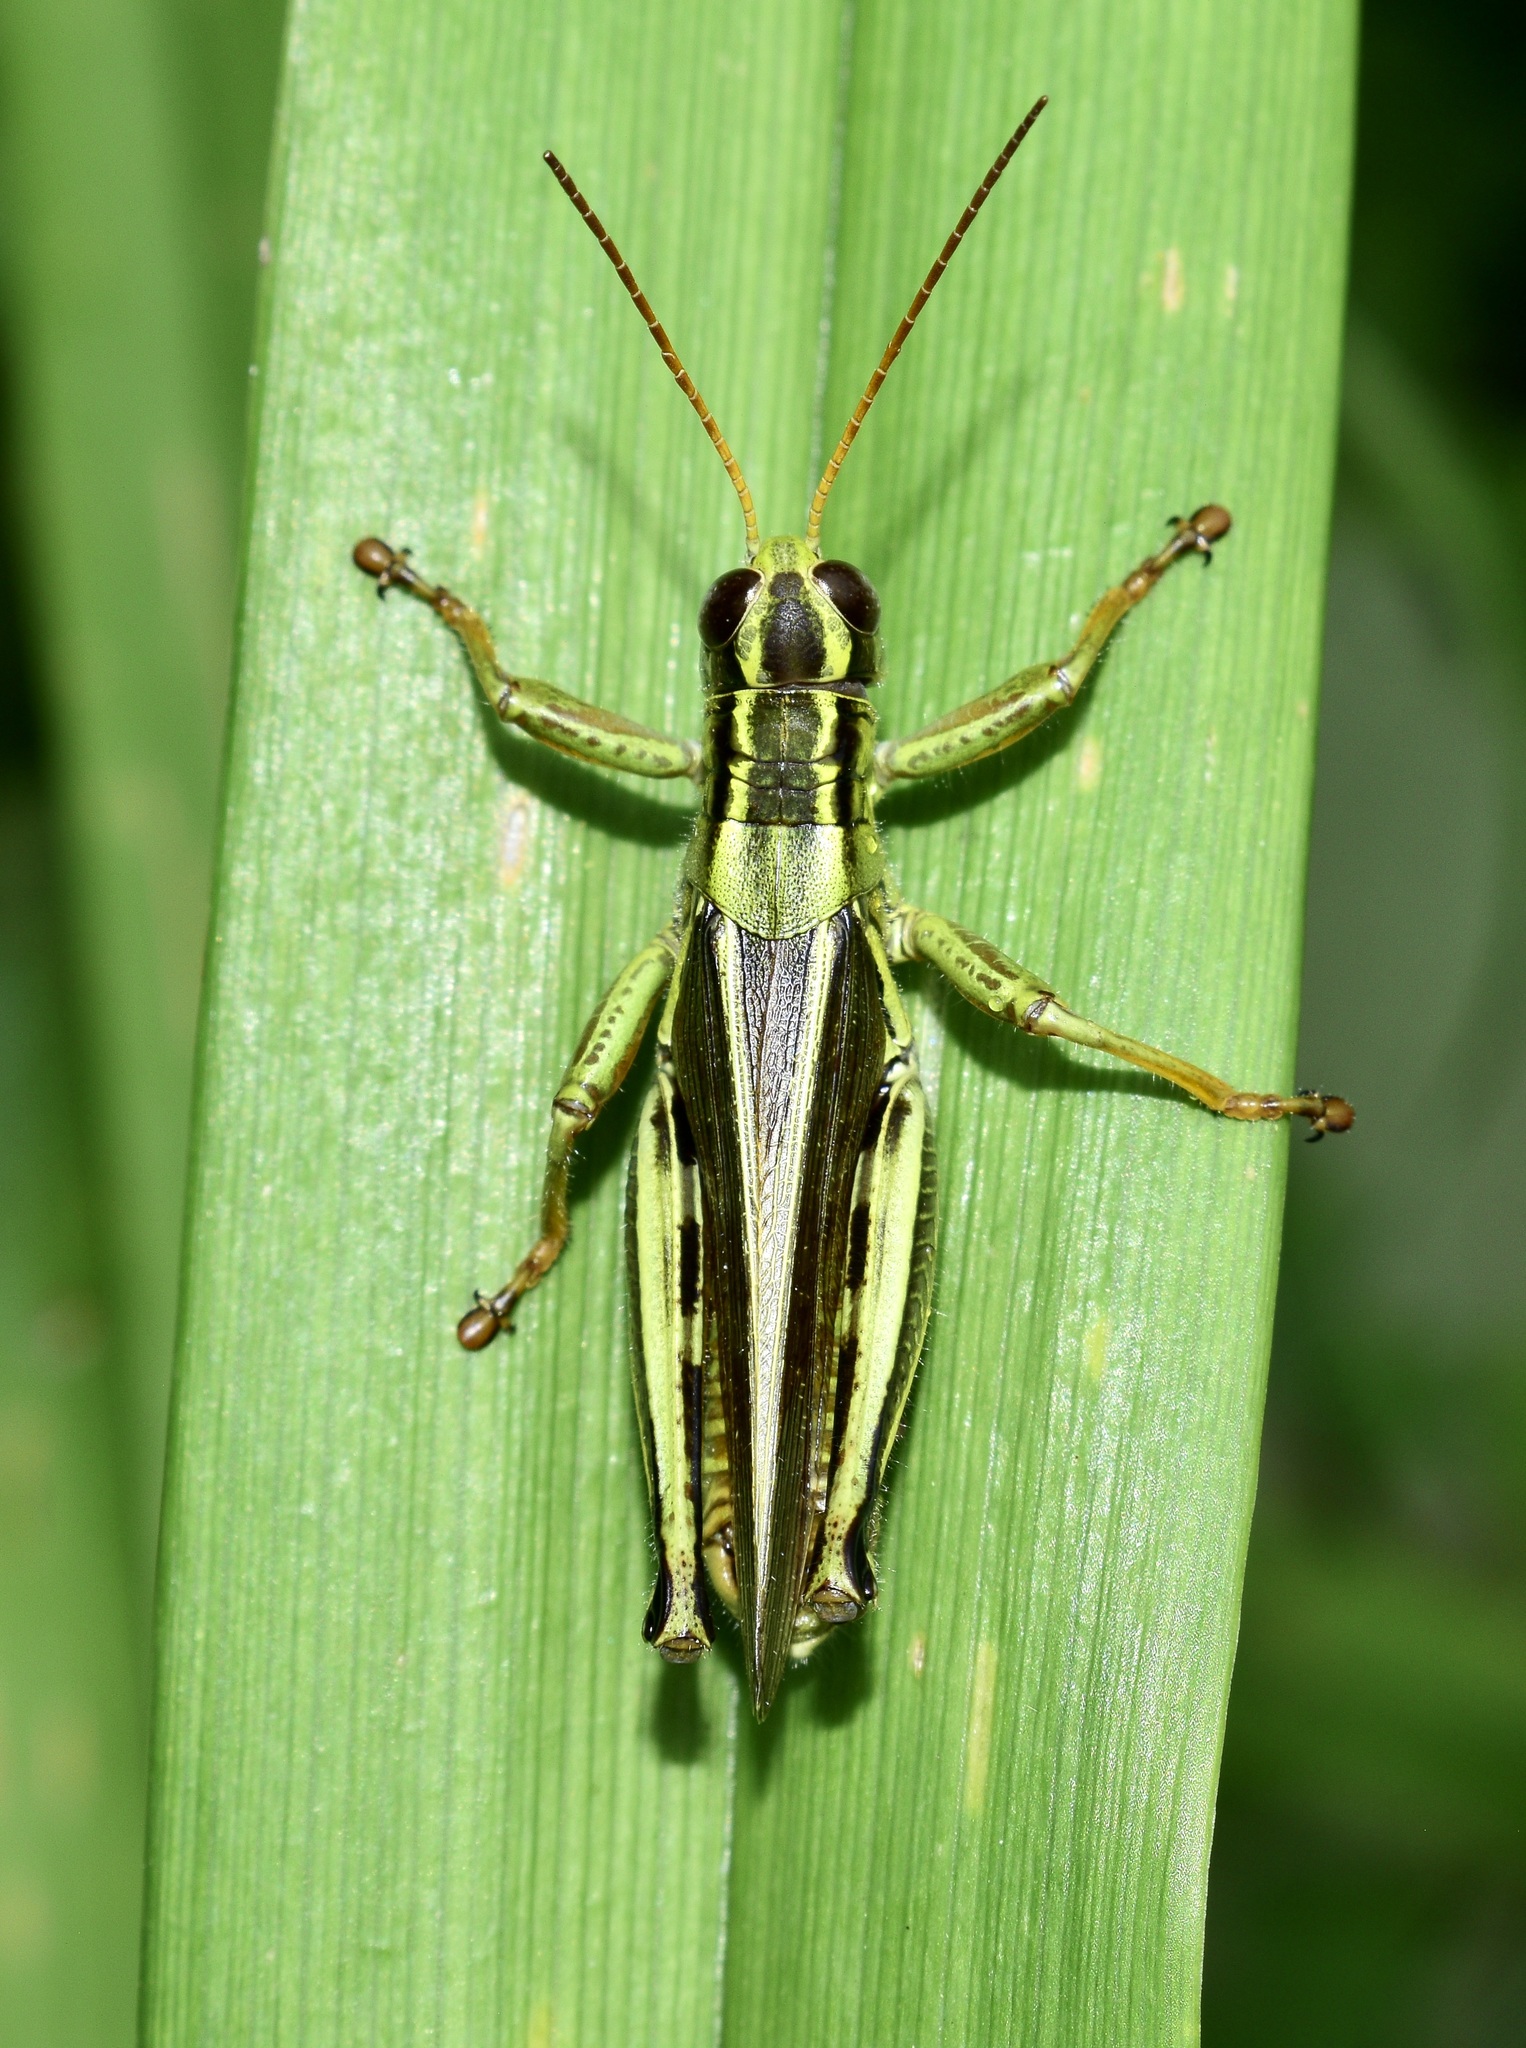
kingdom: Animalia
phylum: Arthropoda
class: Insecta
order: Orthoptera
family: Acrididae
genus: Melanoplus
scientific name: Melanoplus bivittatus
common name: Two-striped grasshopper
